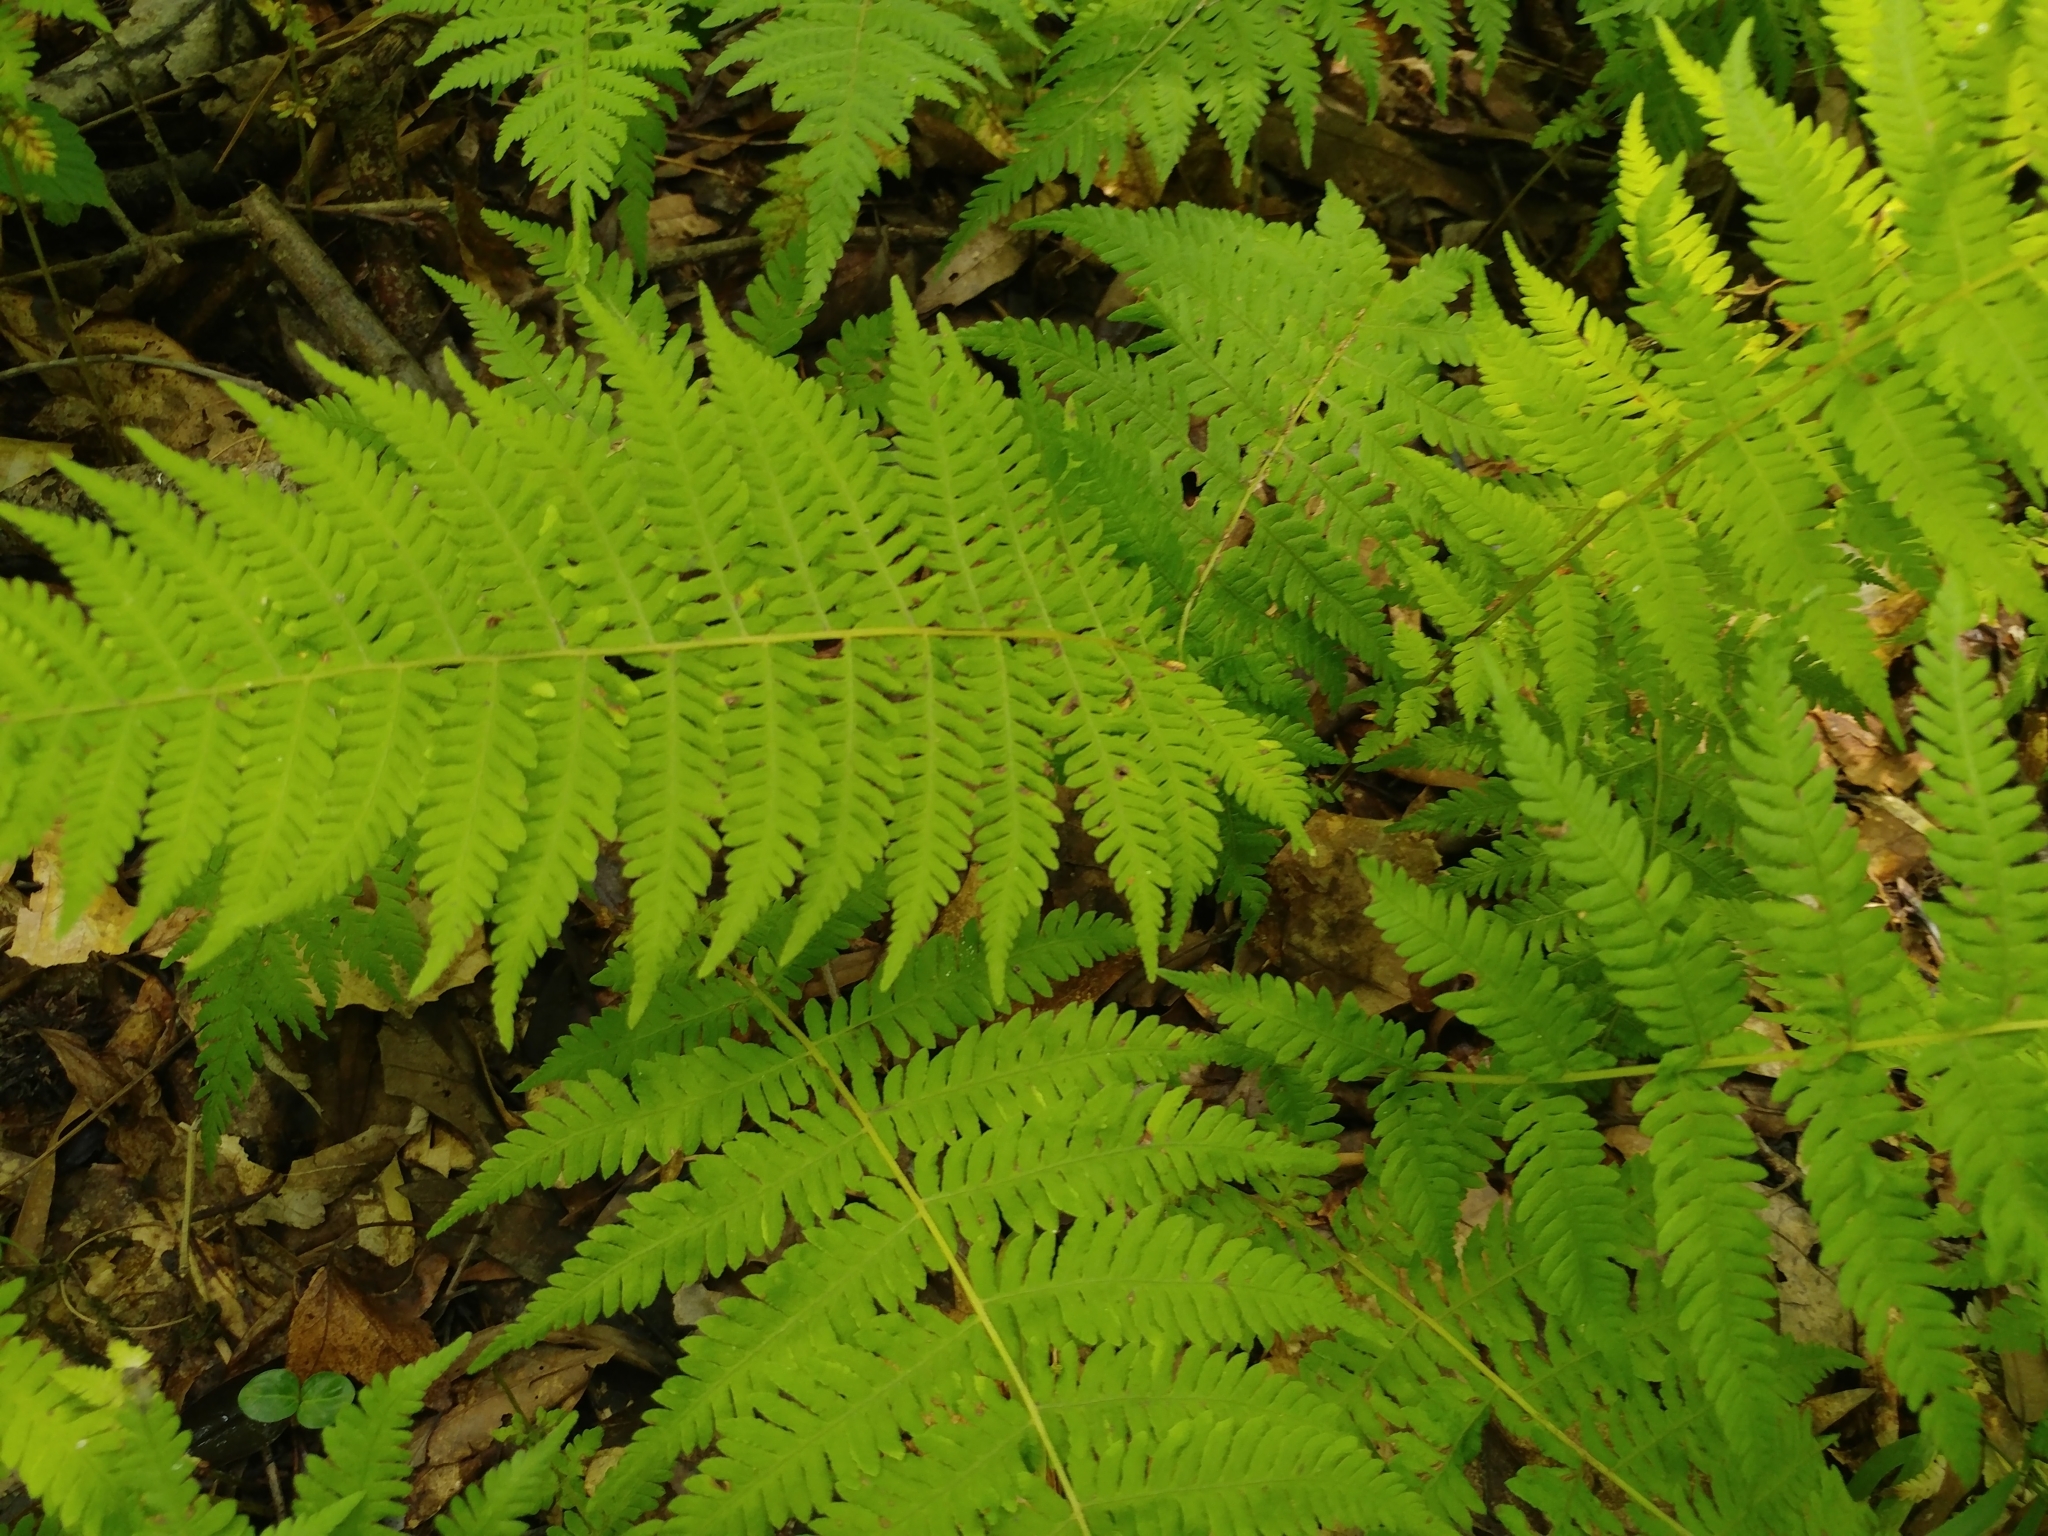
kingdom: Plantae
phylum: Tracheophyta
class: Polypodiopsida
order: Polypodiales
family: Thelypteridaceae
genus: Amauropelta
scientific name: Amauropelta noveboracensis
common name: New york fern
